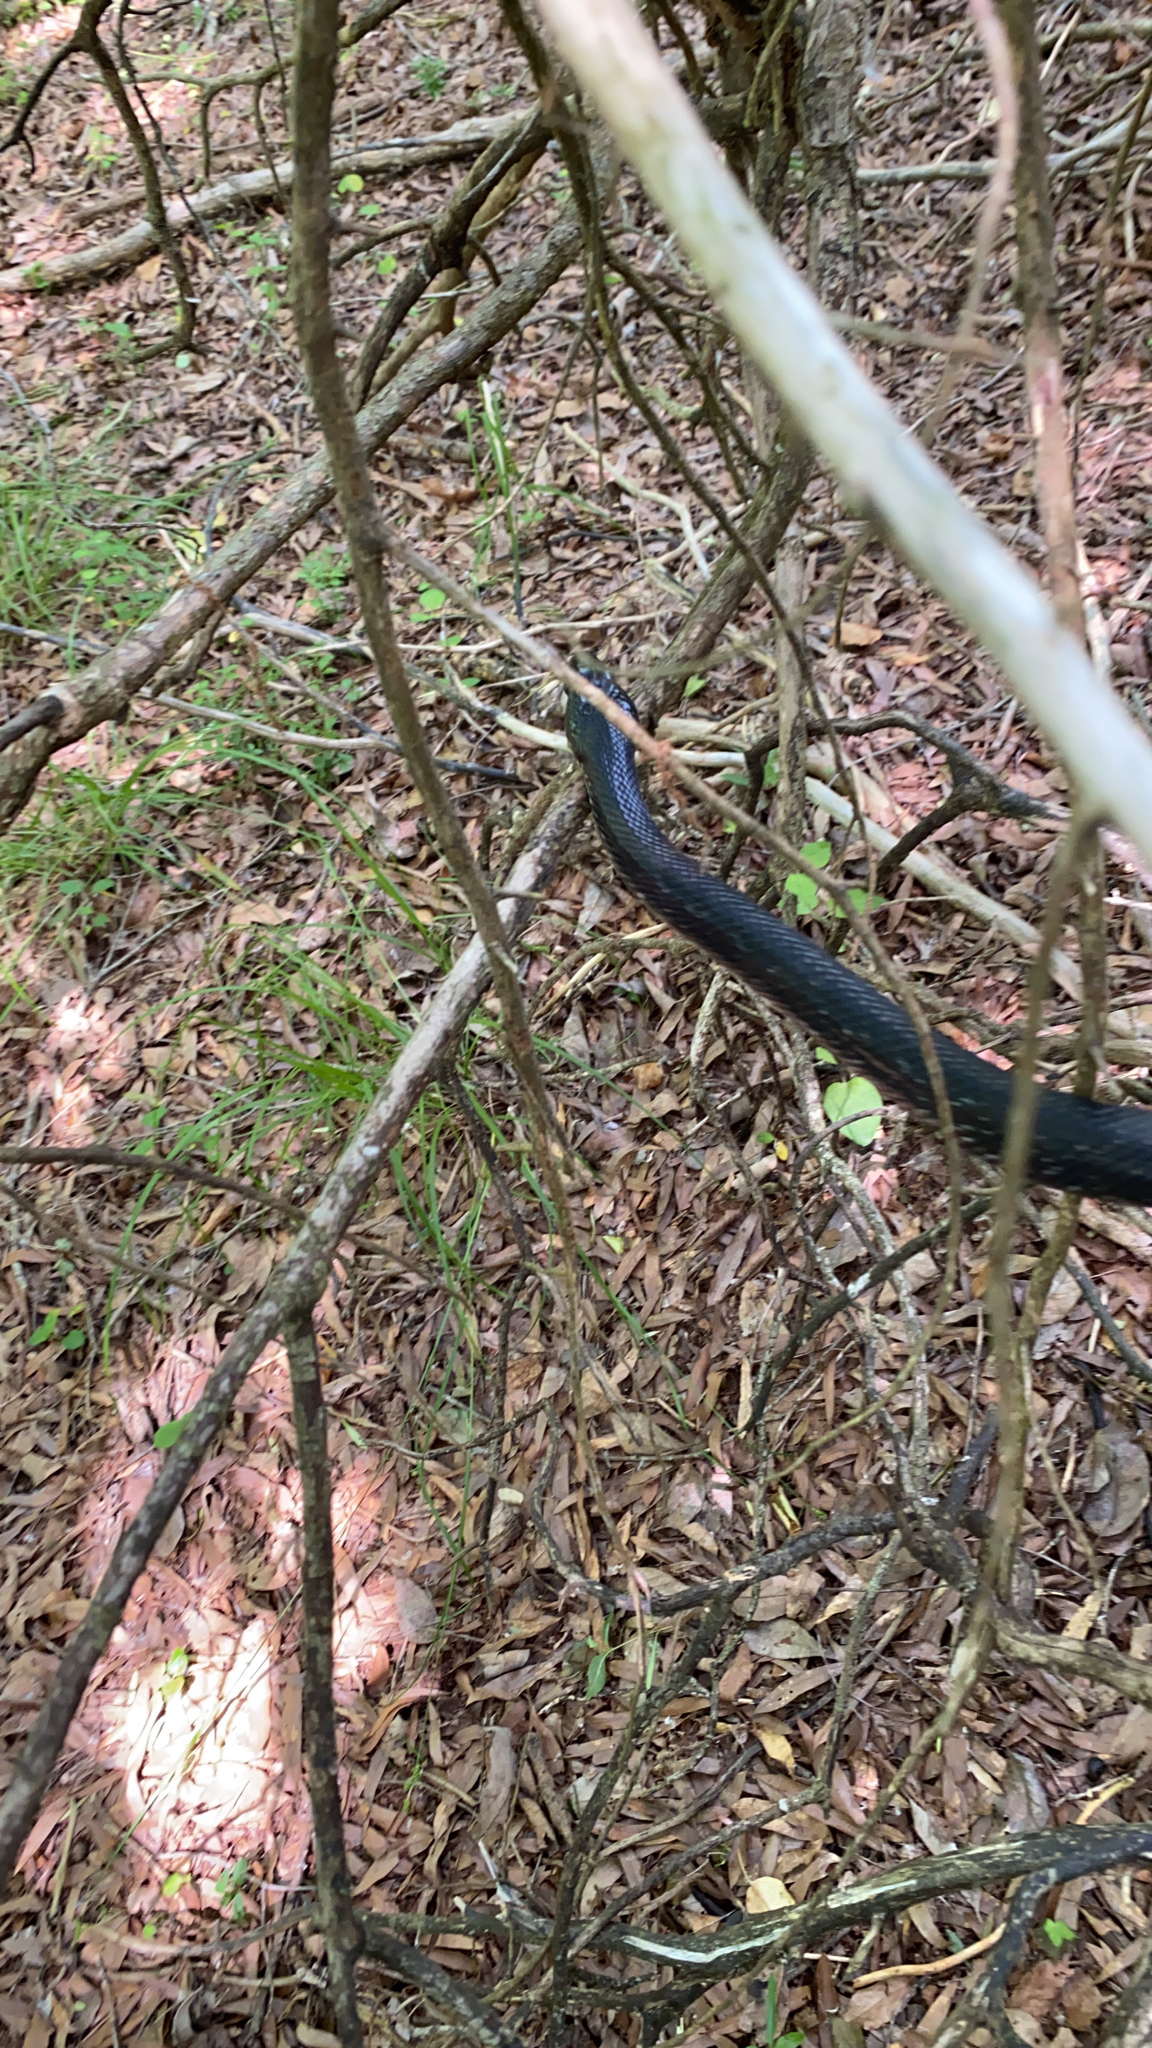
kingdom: Animalia
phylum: Chordata
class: Squamata
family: Colubridae
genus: Pantherophis
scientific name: Pantherophis alleghaniensis
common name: Eastern rat snake
